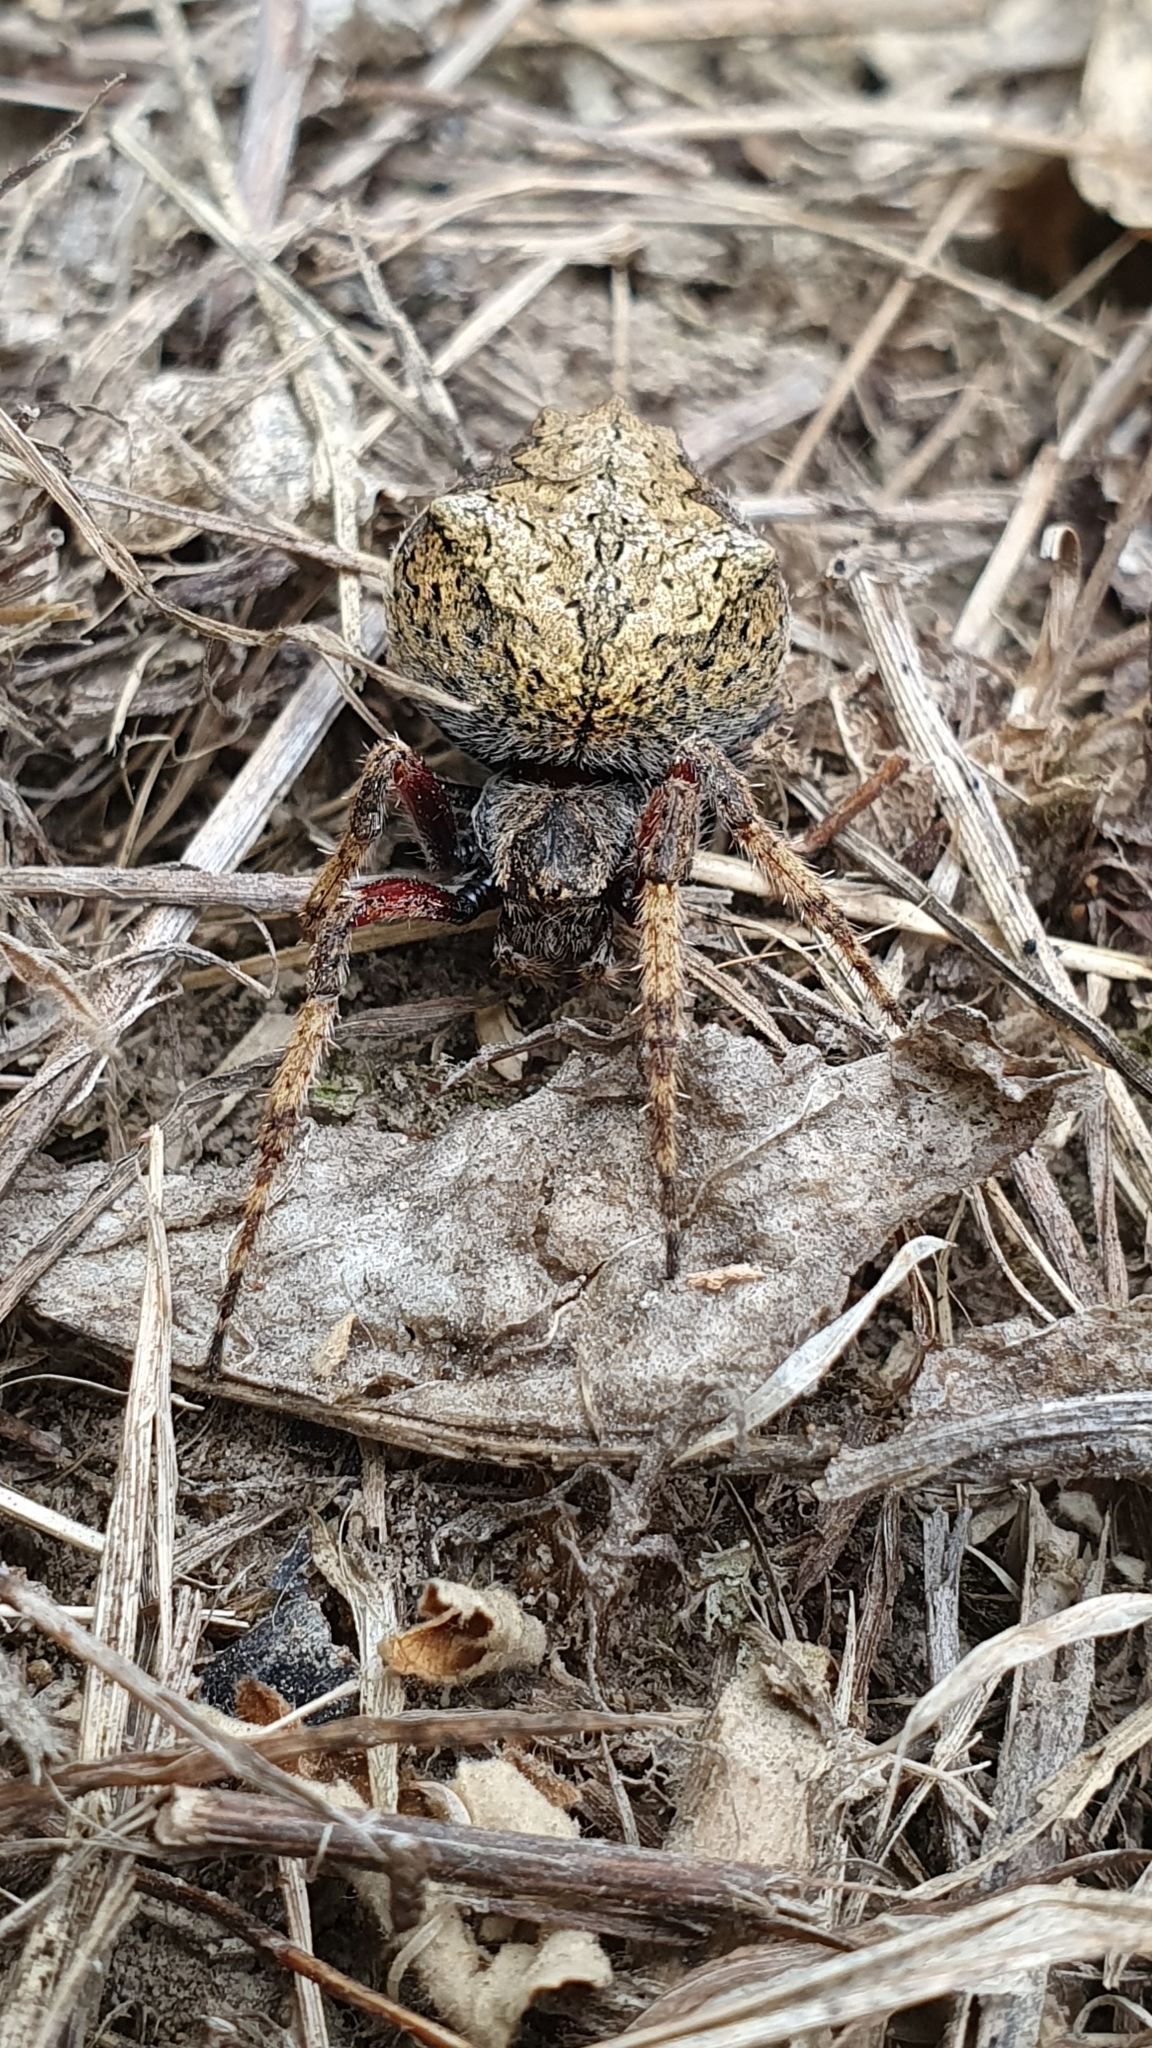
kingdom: Animalia
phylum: Arthropoda
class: Arachnida
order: Araneae
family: Araneidae
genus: Eriophora
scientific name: Eriophora pustulosa
